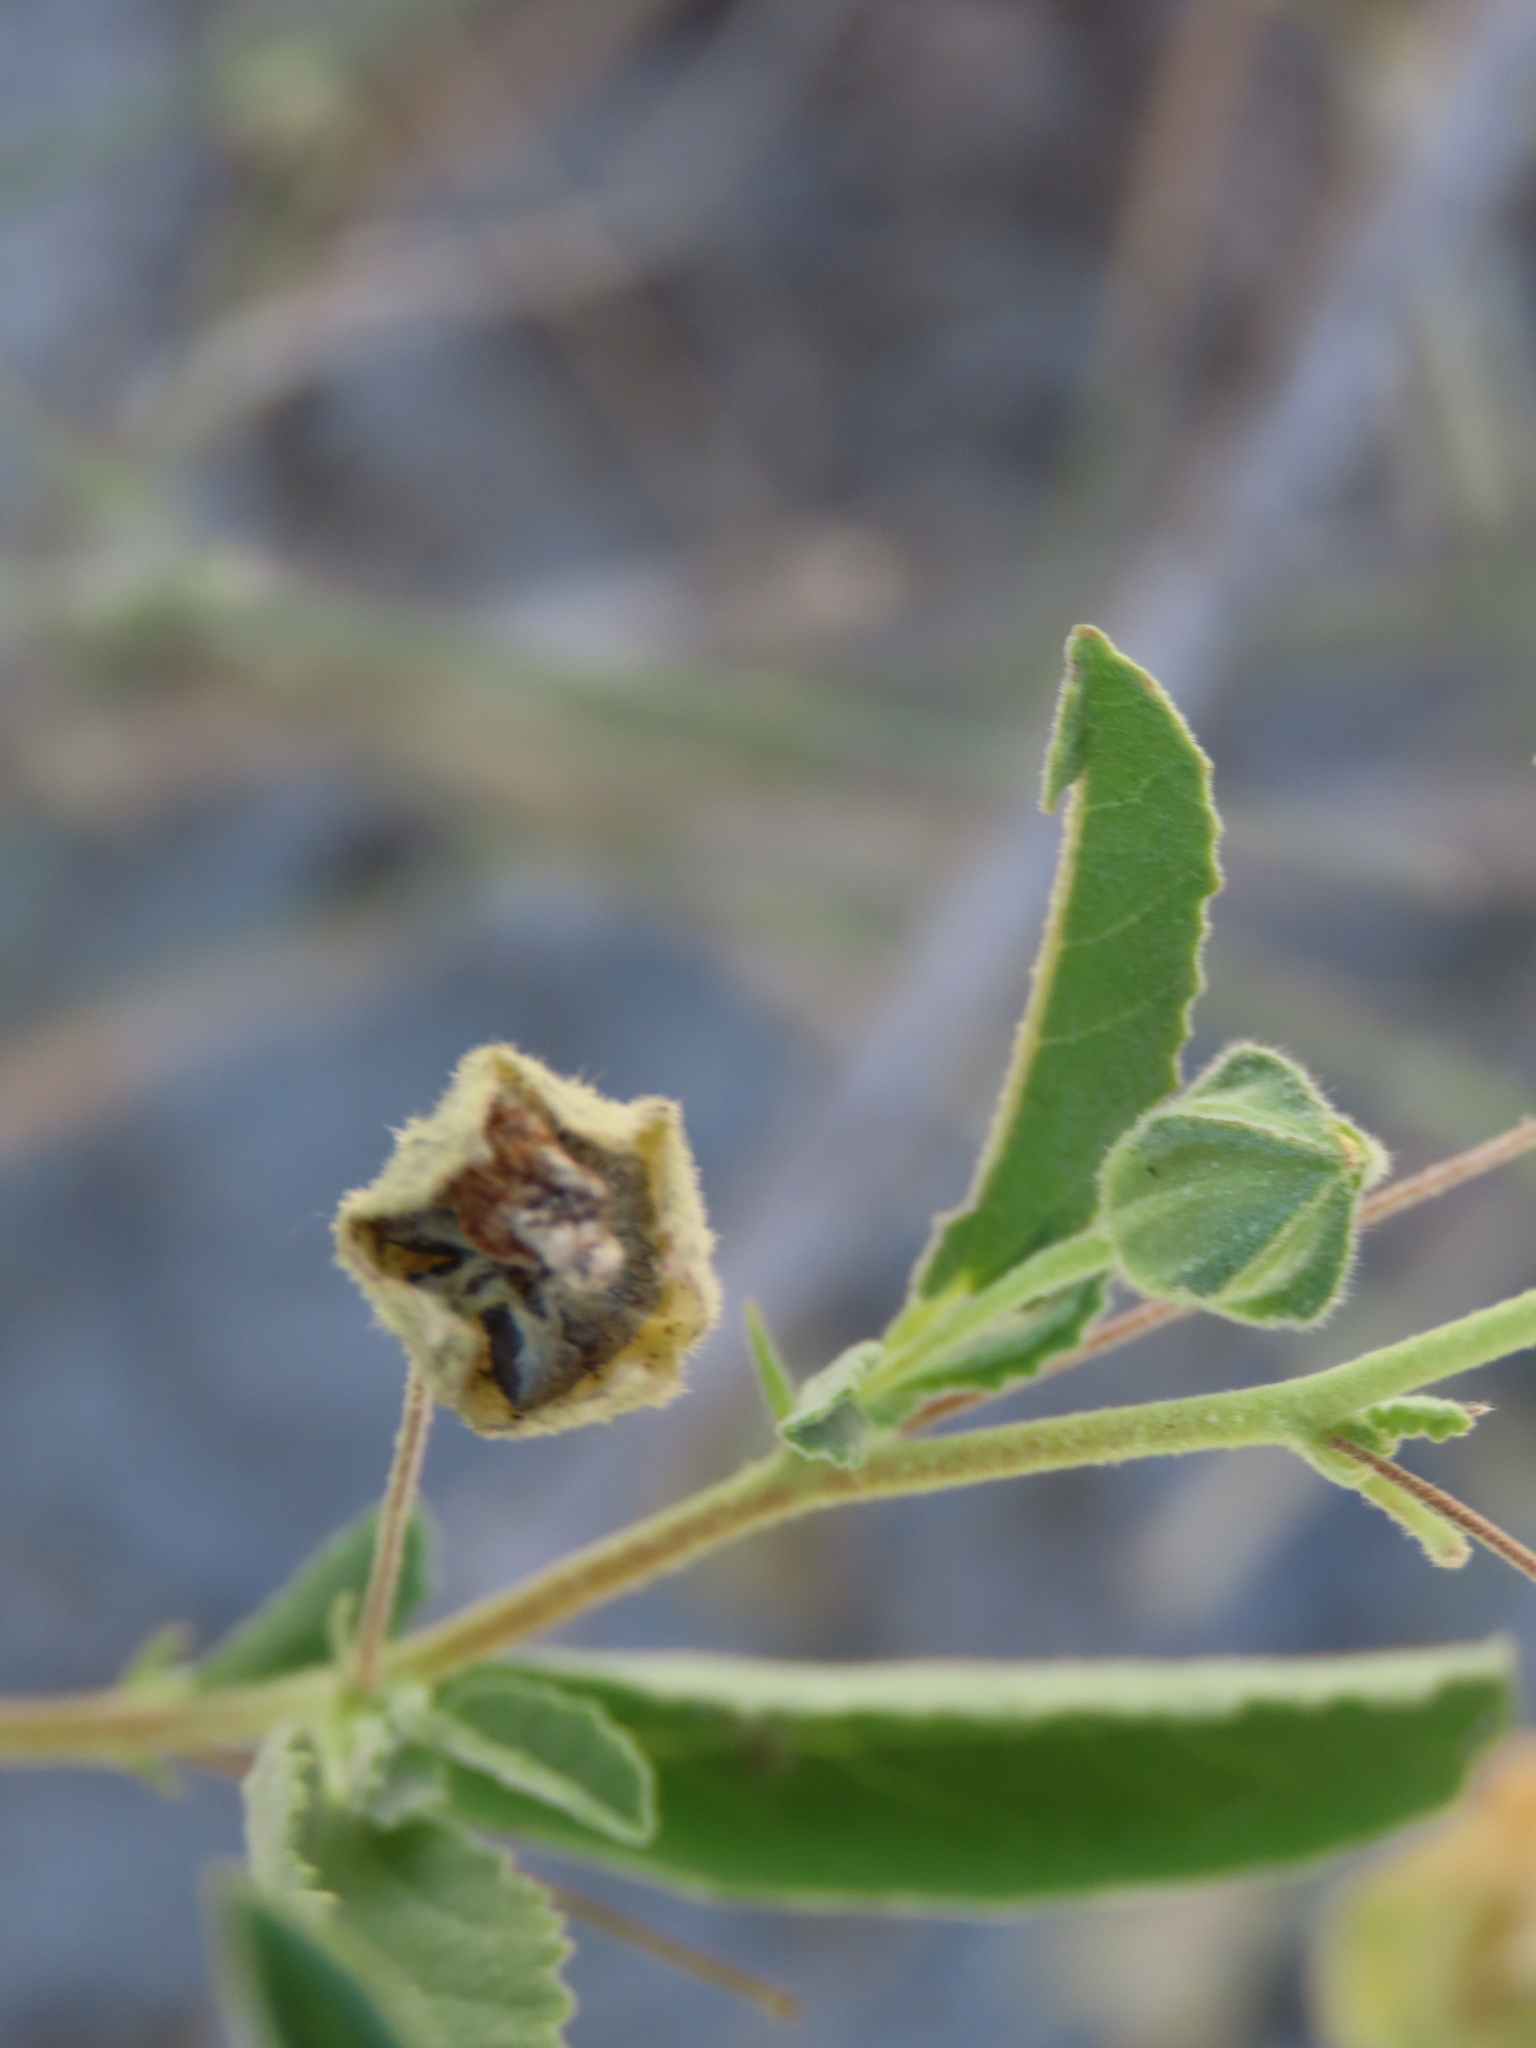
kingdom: Plantae
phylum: Tracheophyta
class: Magnoliopsida
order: Malvales
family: Malvaceae
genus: Sida
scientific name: Sida ovata
